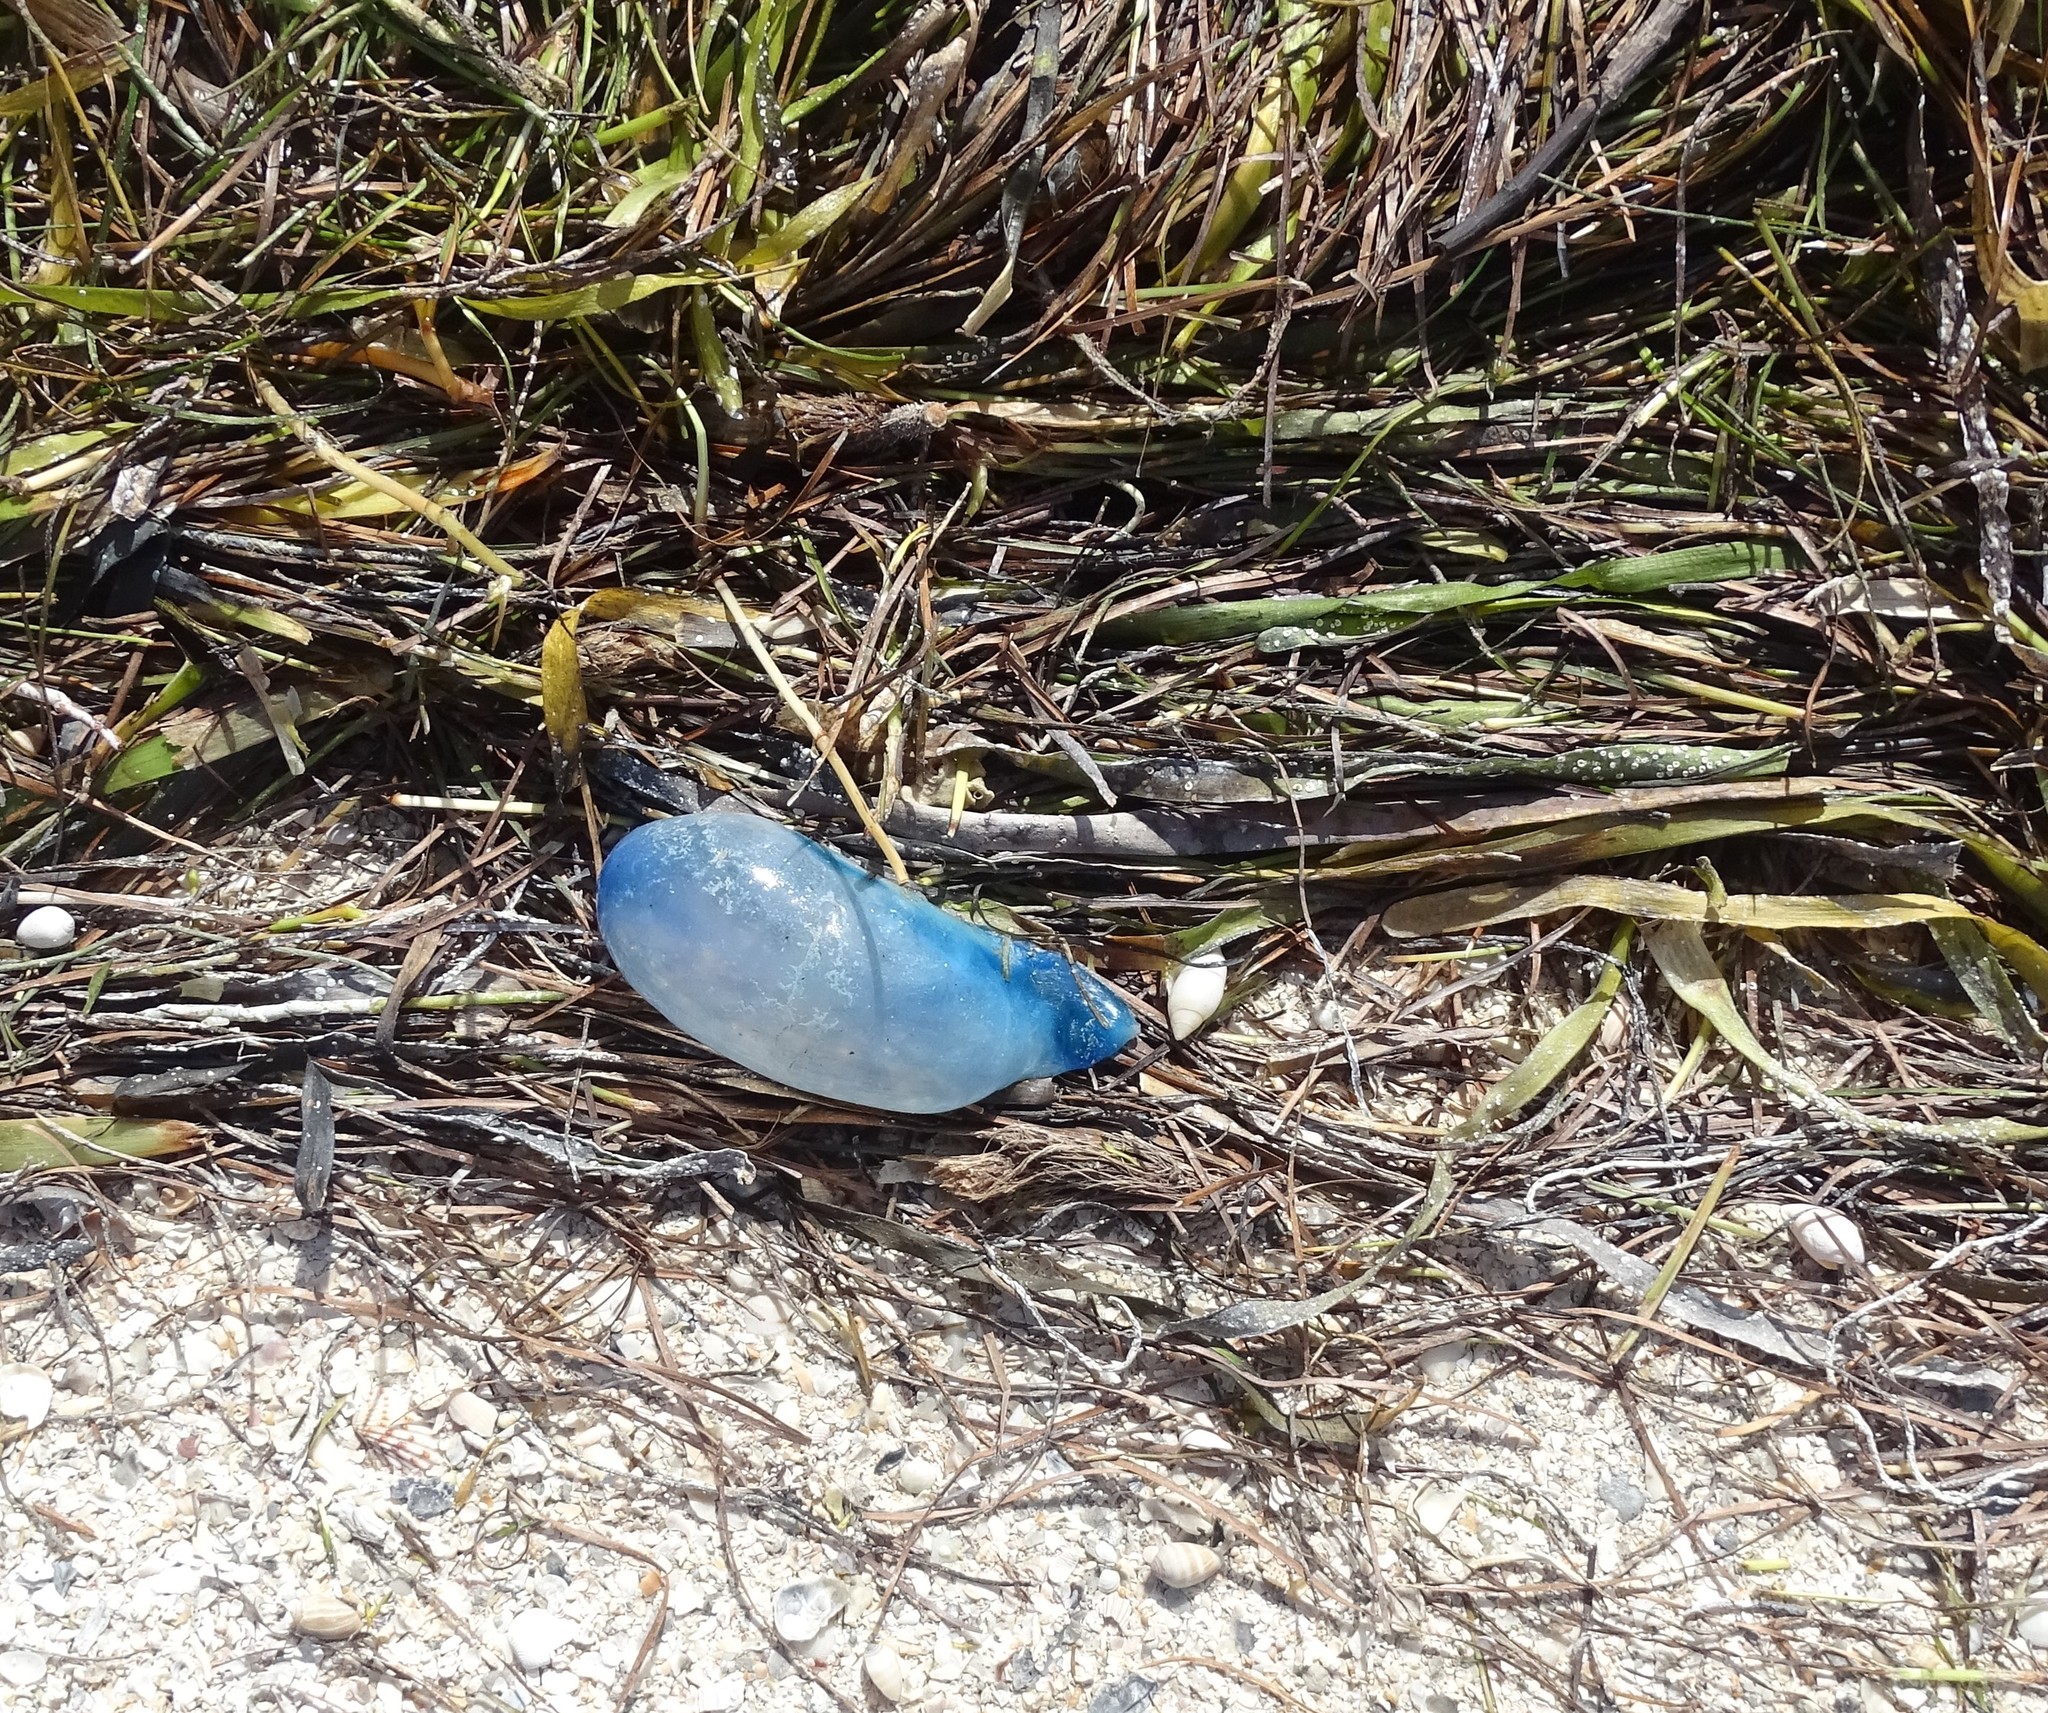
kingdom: Animalia
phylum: Cnidaria
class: Hydrozoa
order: Siphonophorae
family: Physaliidae
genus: Physalia
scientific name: Physalia physalis
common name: Portuguese man-of-war
